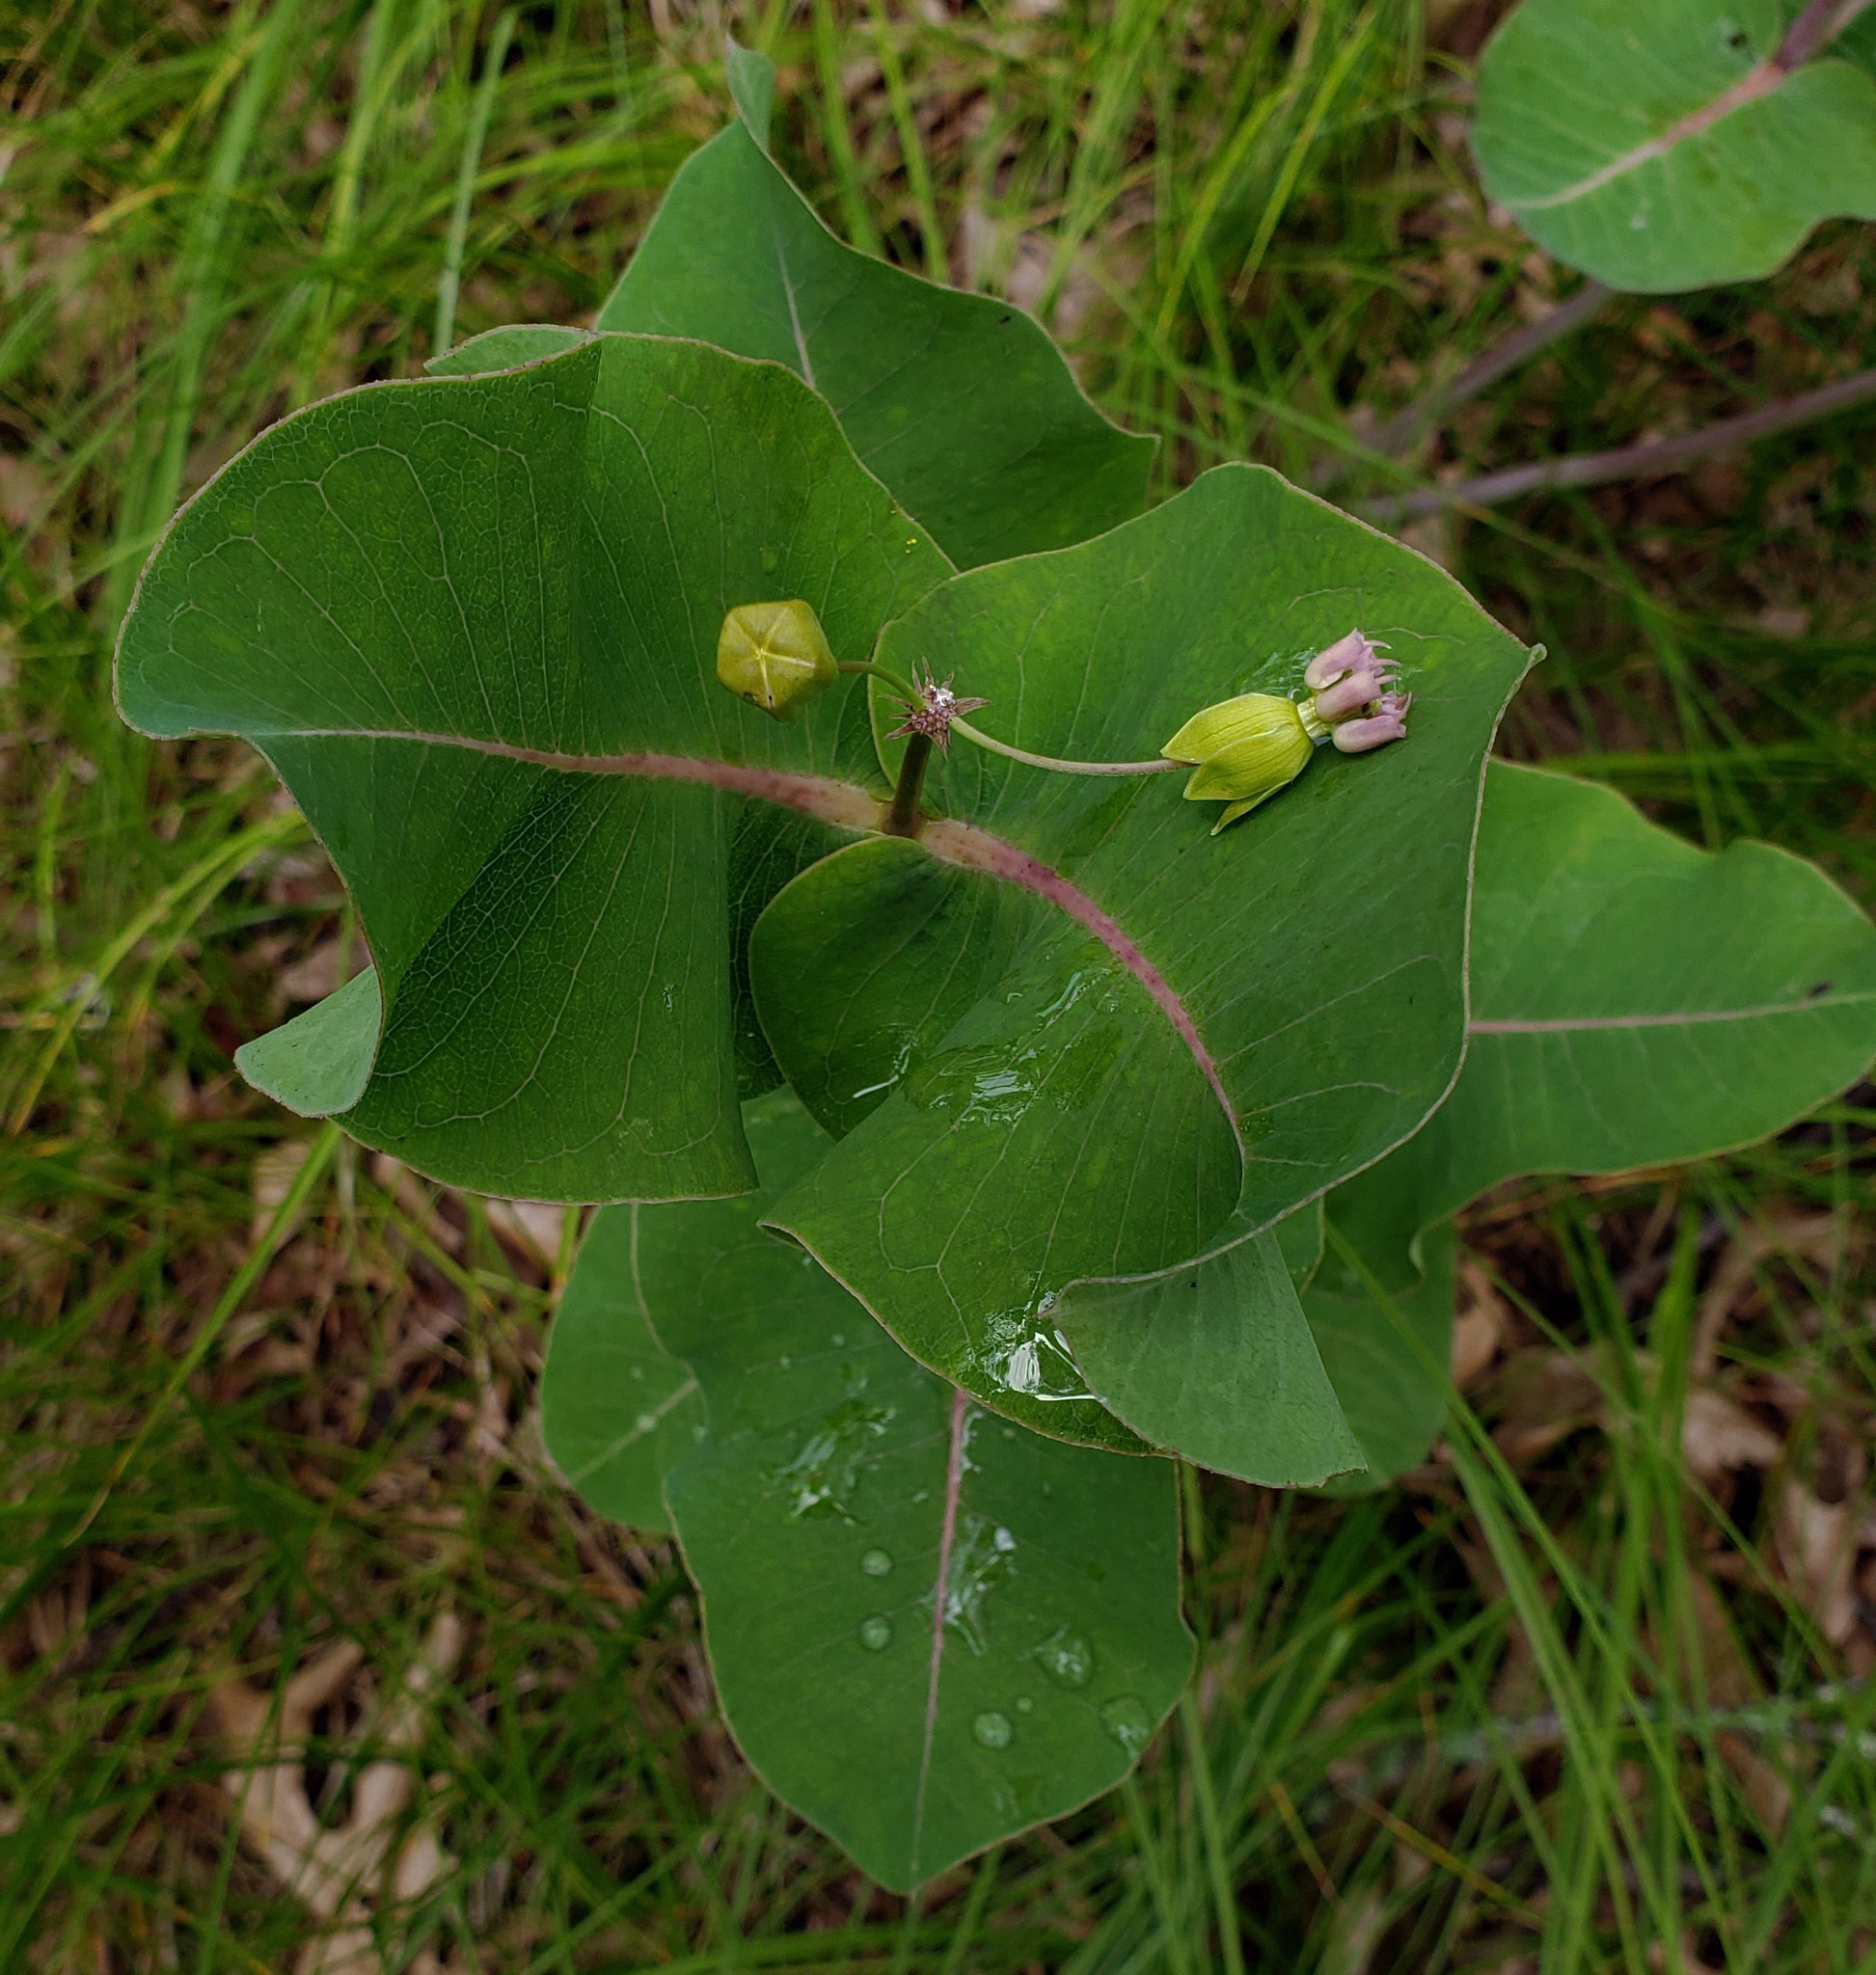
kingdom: Plantae
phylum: Tracheophyta
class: Magnoliopsida
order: Gentianales
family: Apocynaceae
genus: Asclepias
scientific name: Asclepias amplexicaulis
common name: Blunt-leaf milkweed
